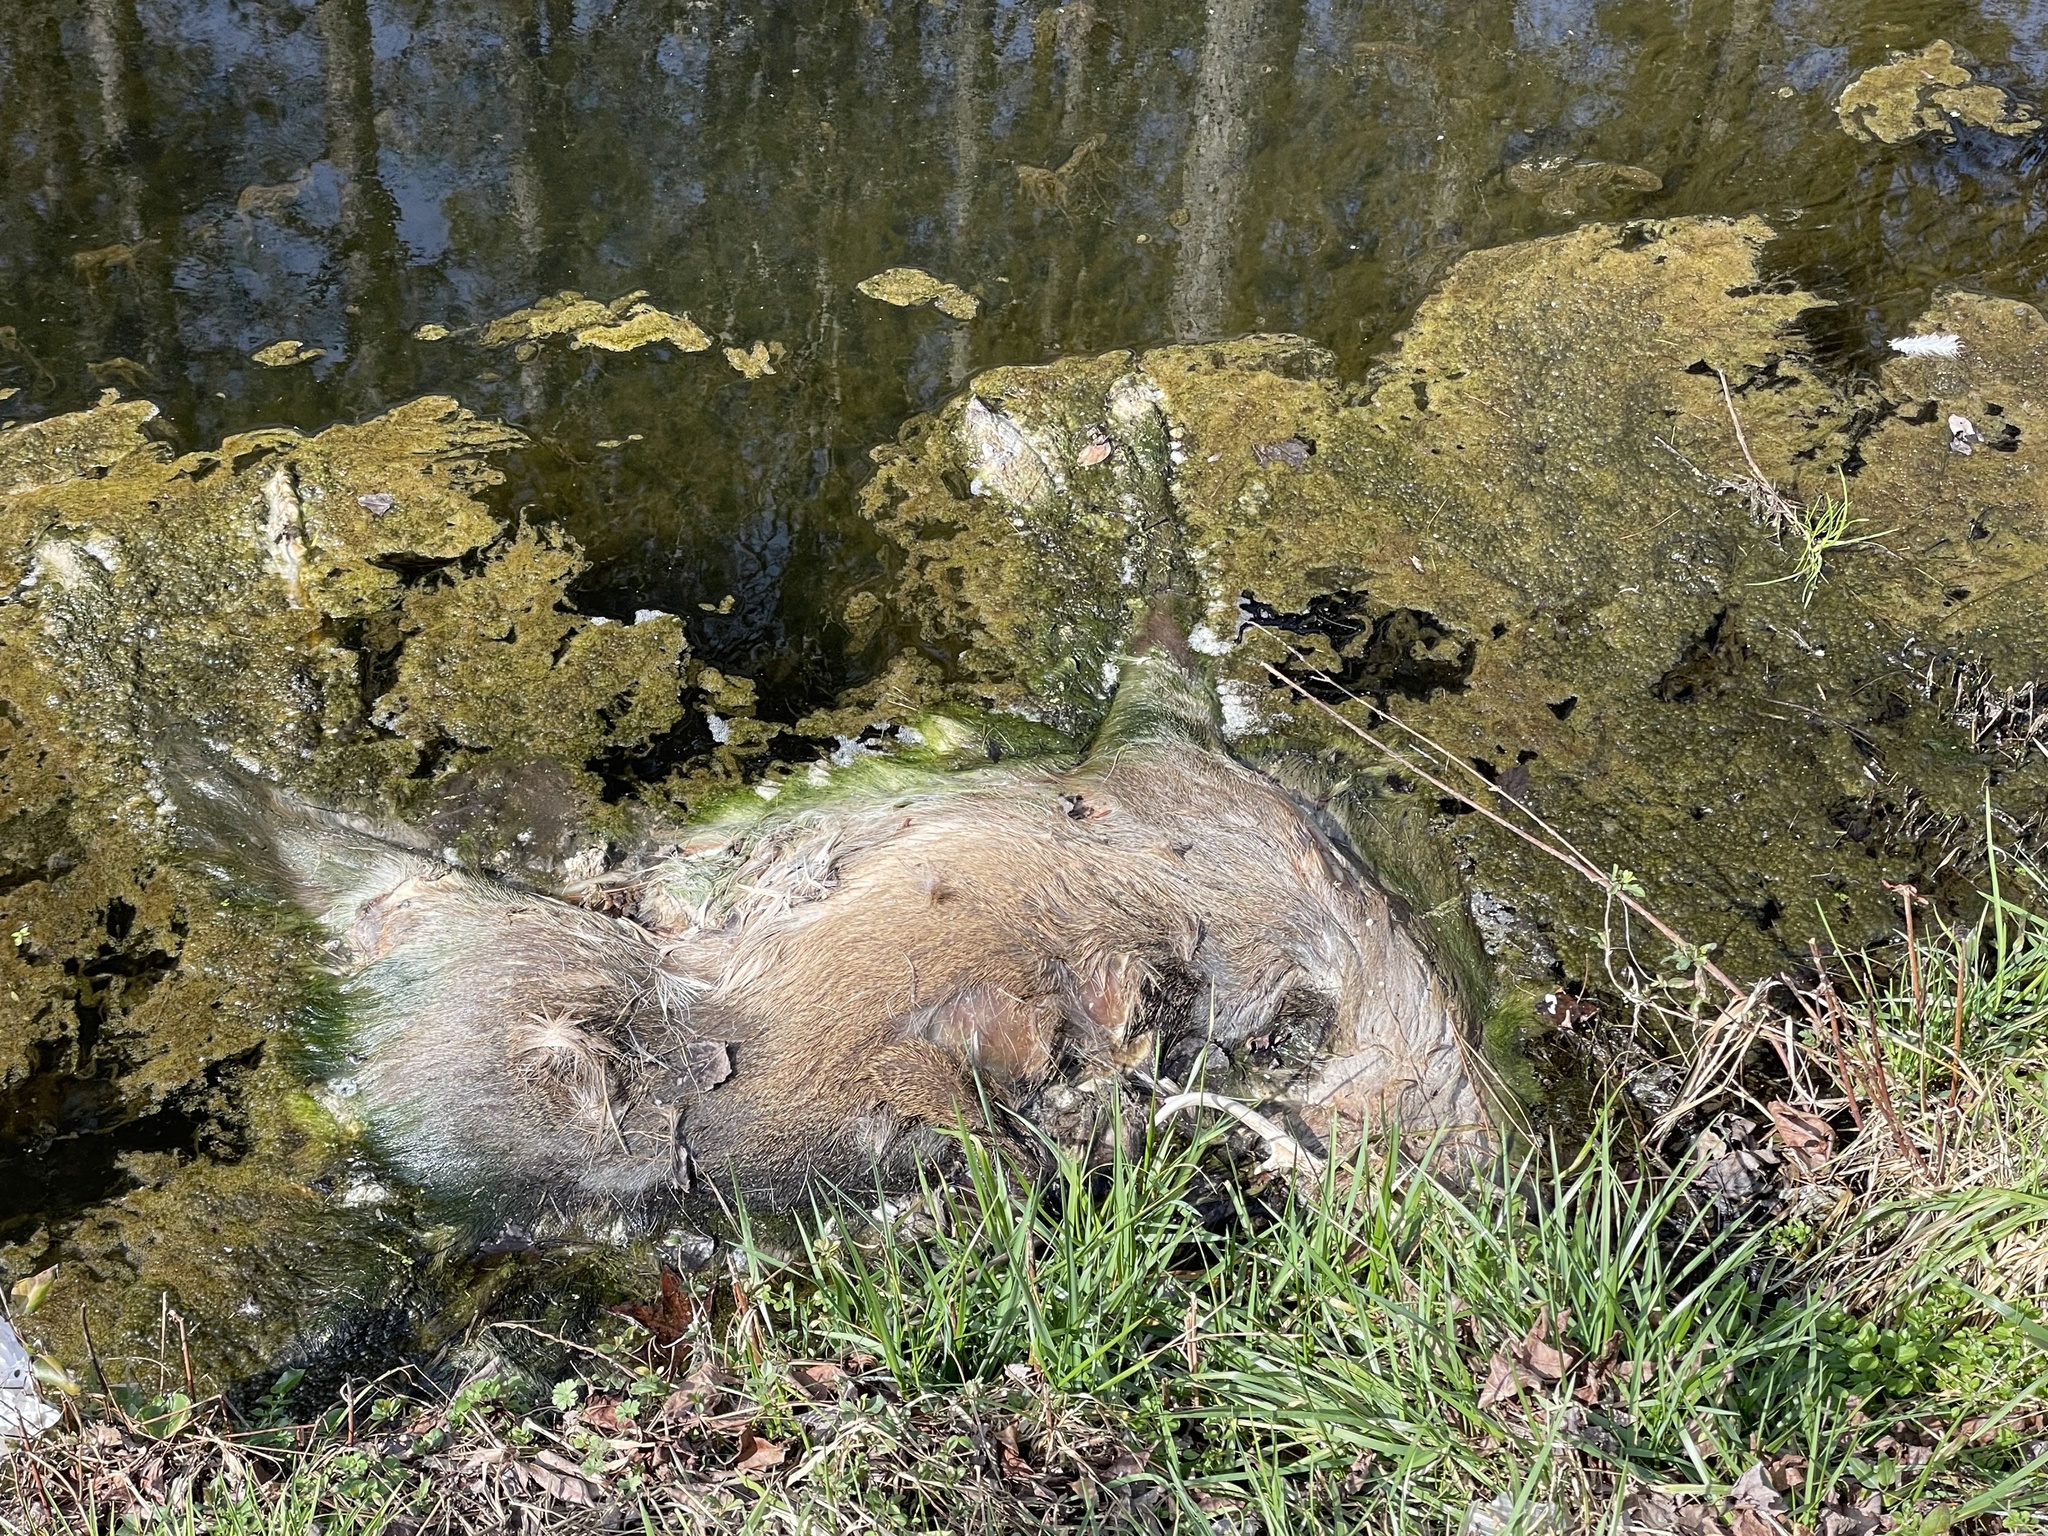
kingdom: Animalia
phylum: Chordata
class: Mammalia
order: Artiodactyla
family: Cervidae
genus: Odocoileus
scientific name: Odocoileus virginianus
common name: White-tailed deer
